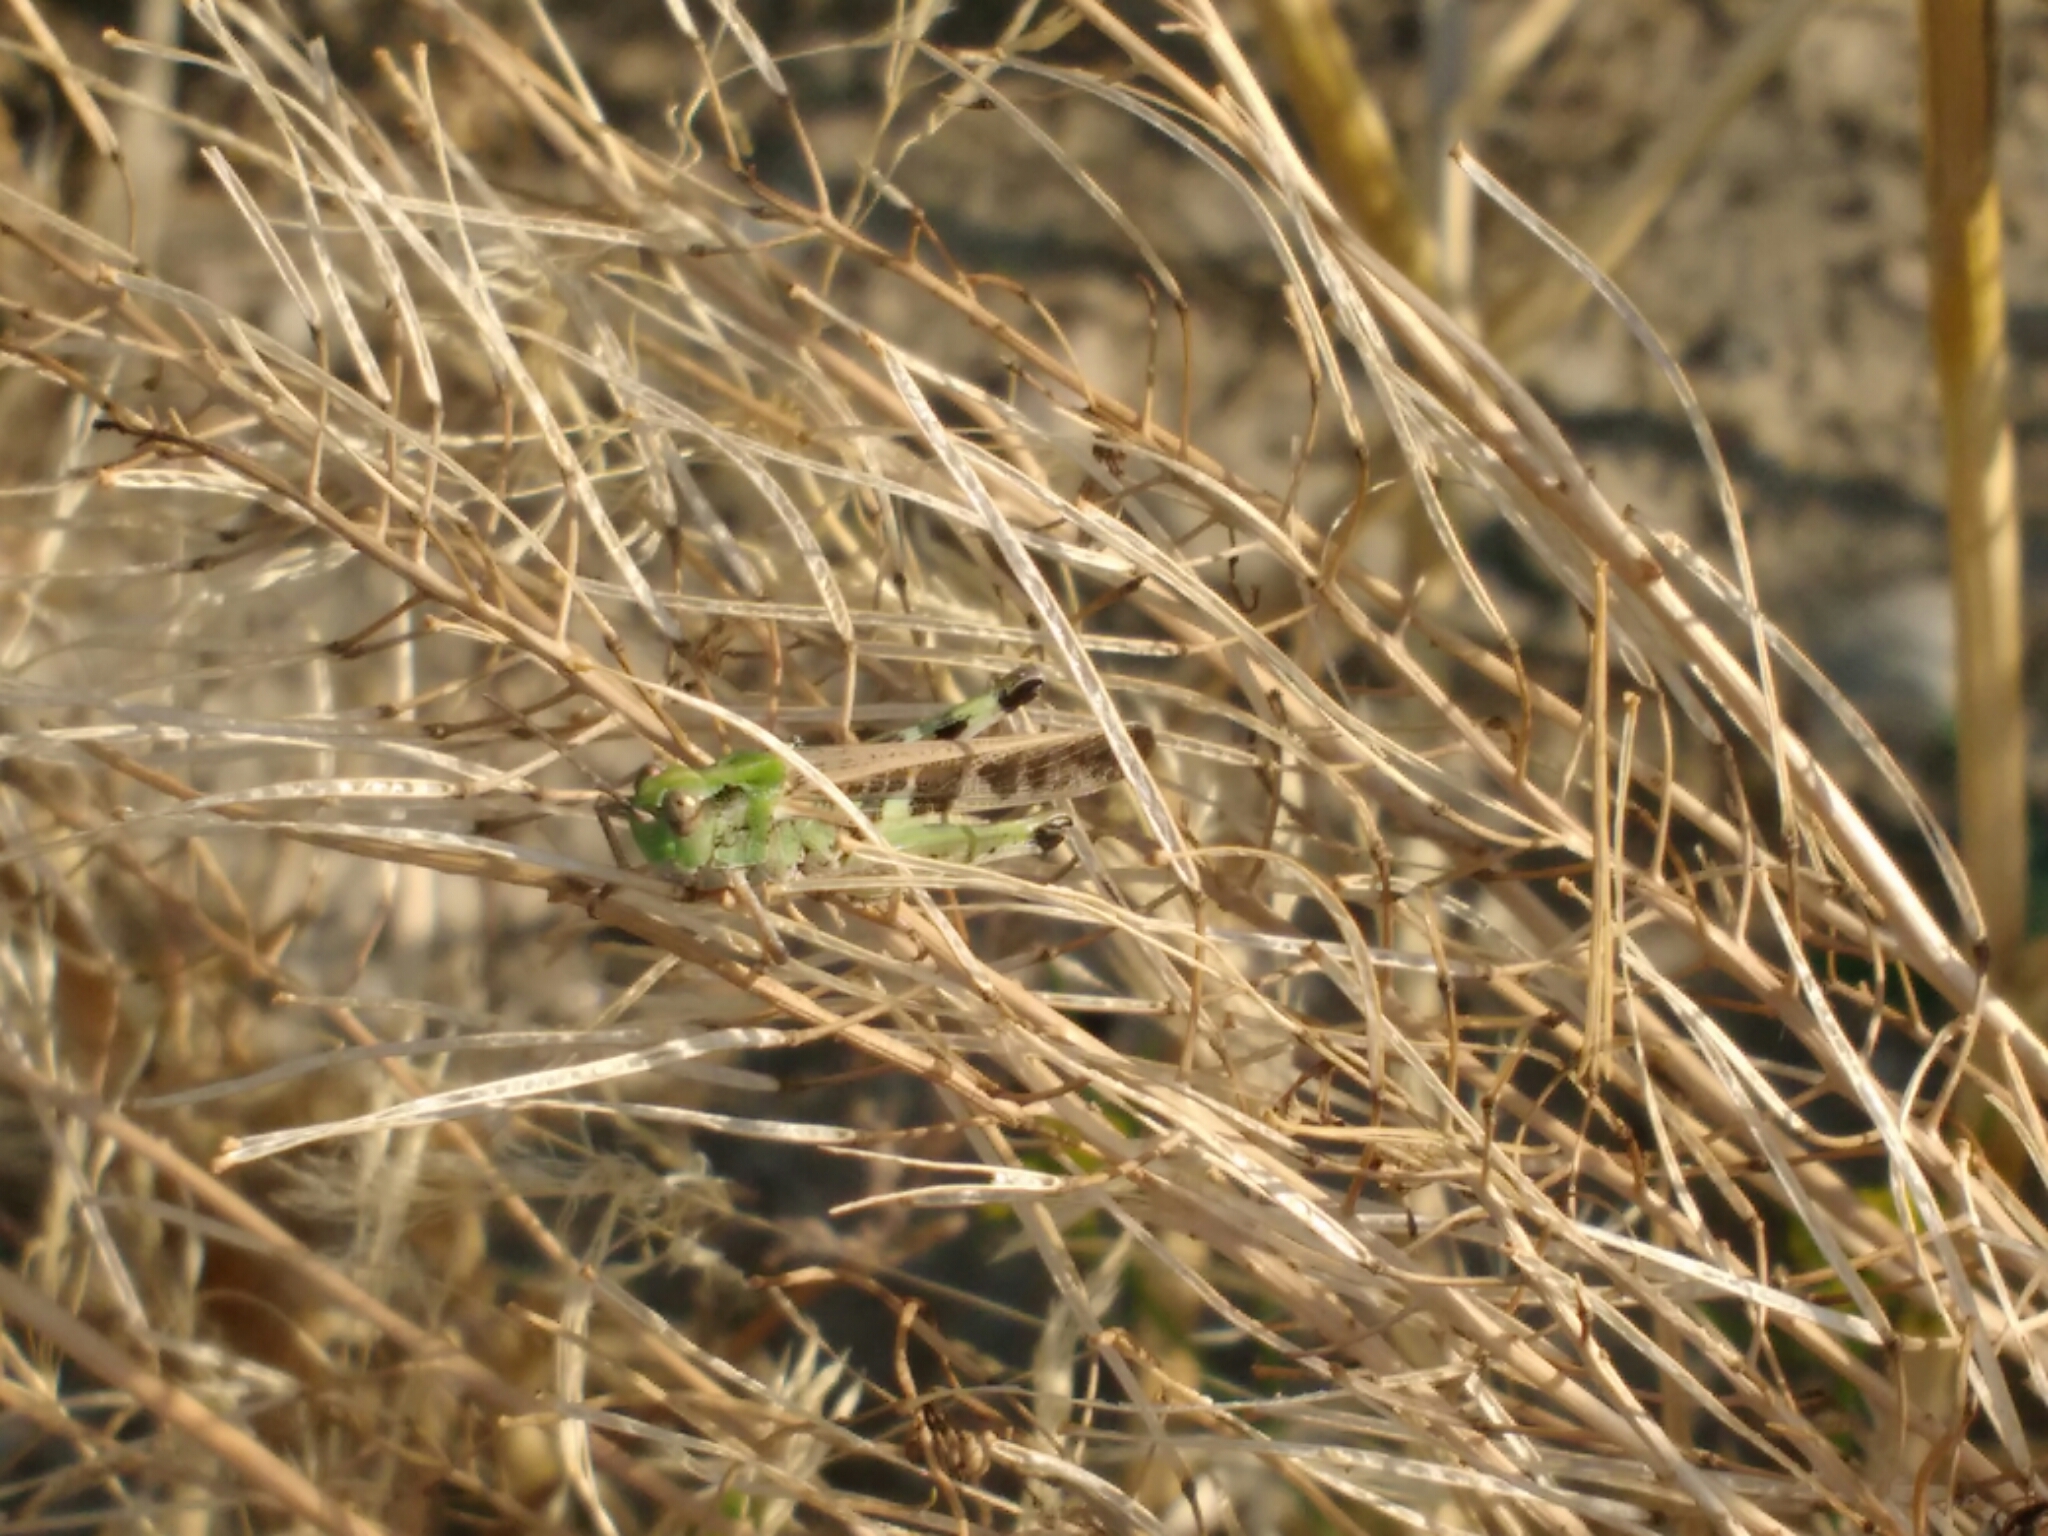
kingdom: Animalia
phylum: Arthropoda
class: Insecta
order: Orthoptera
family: Acrididae
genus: Aiolopus
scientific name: Aiolopus thalassinus
